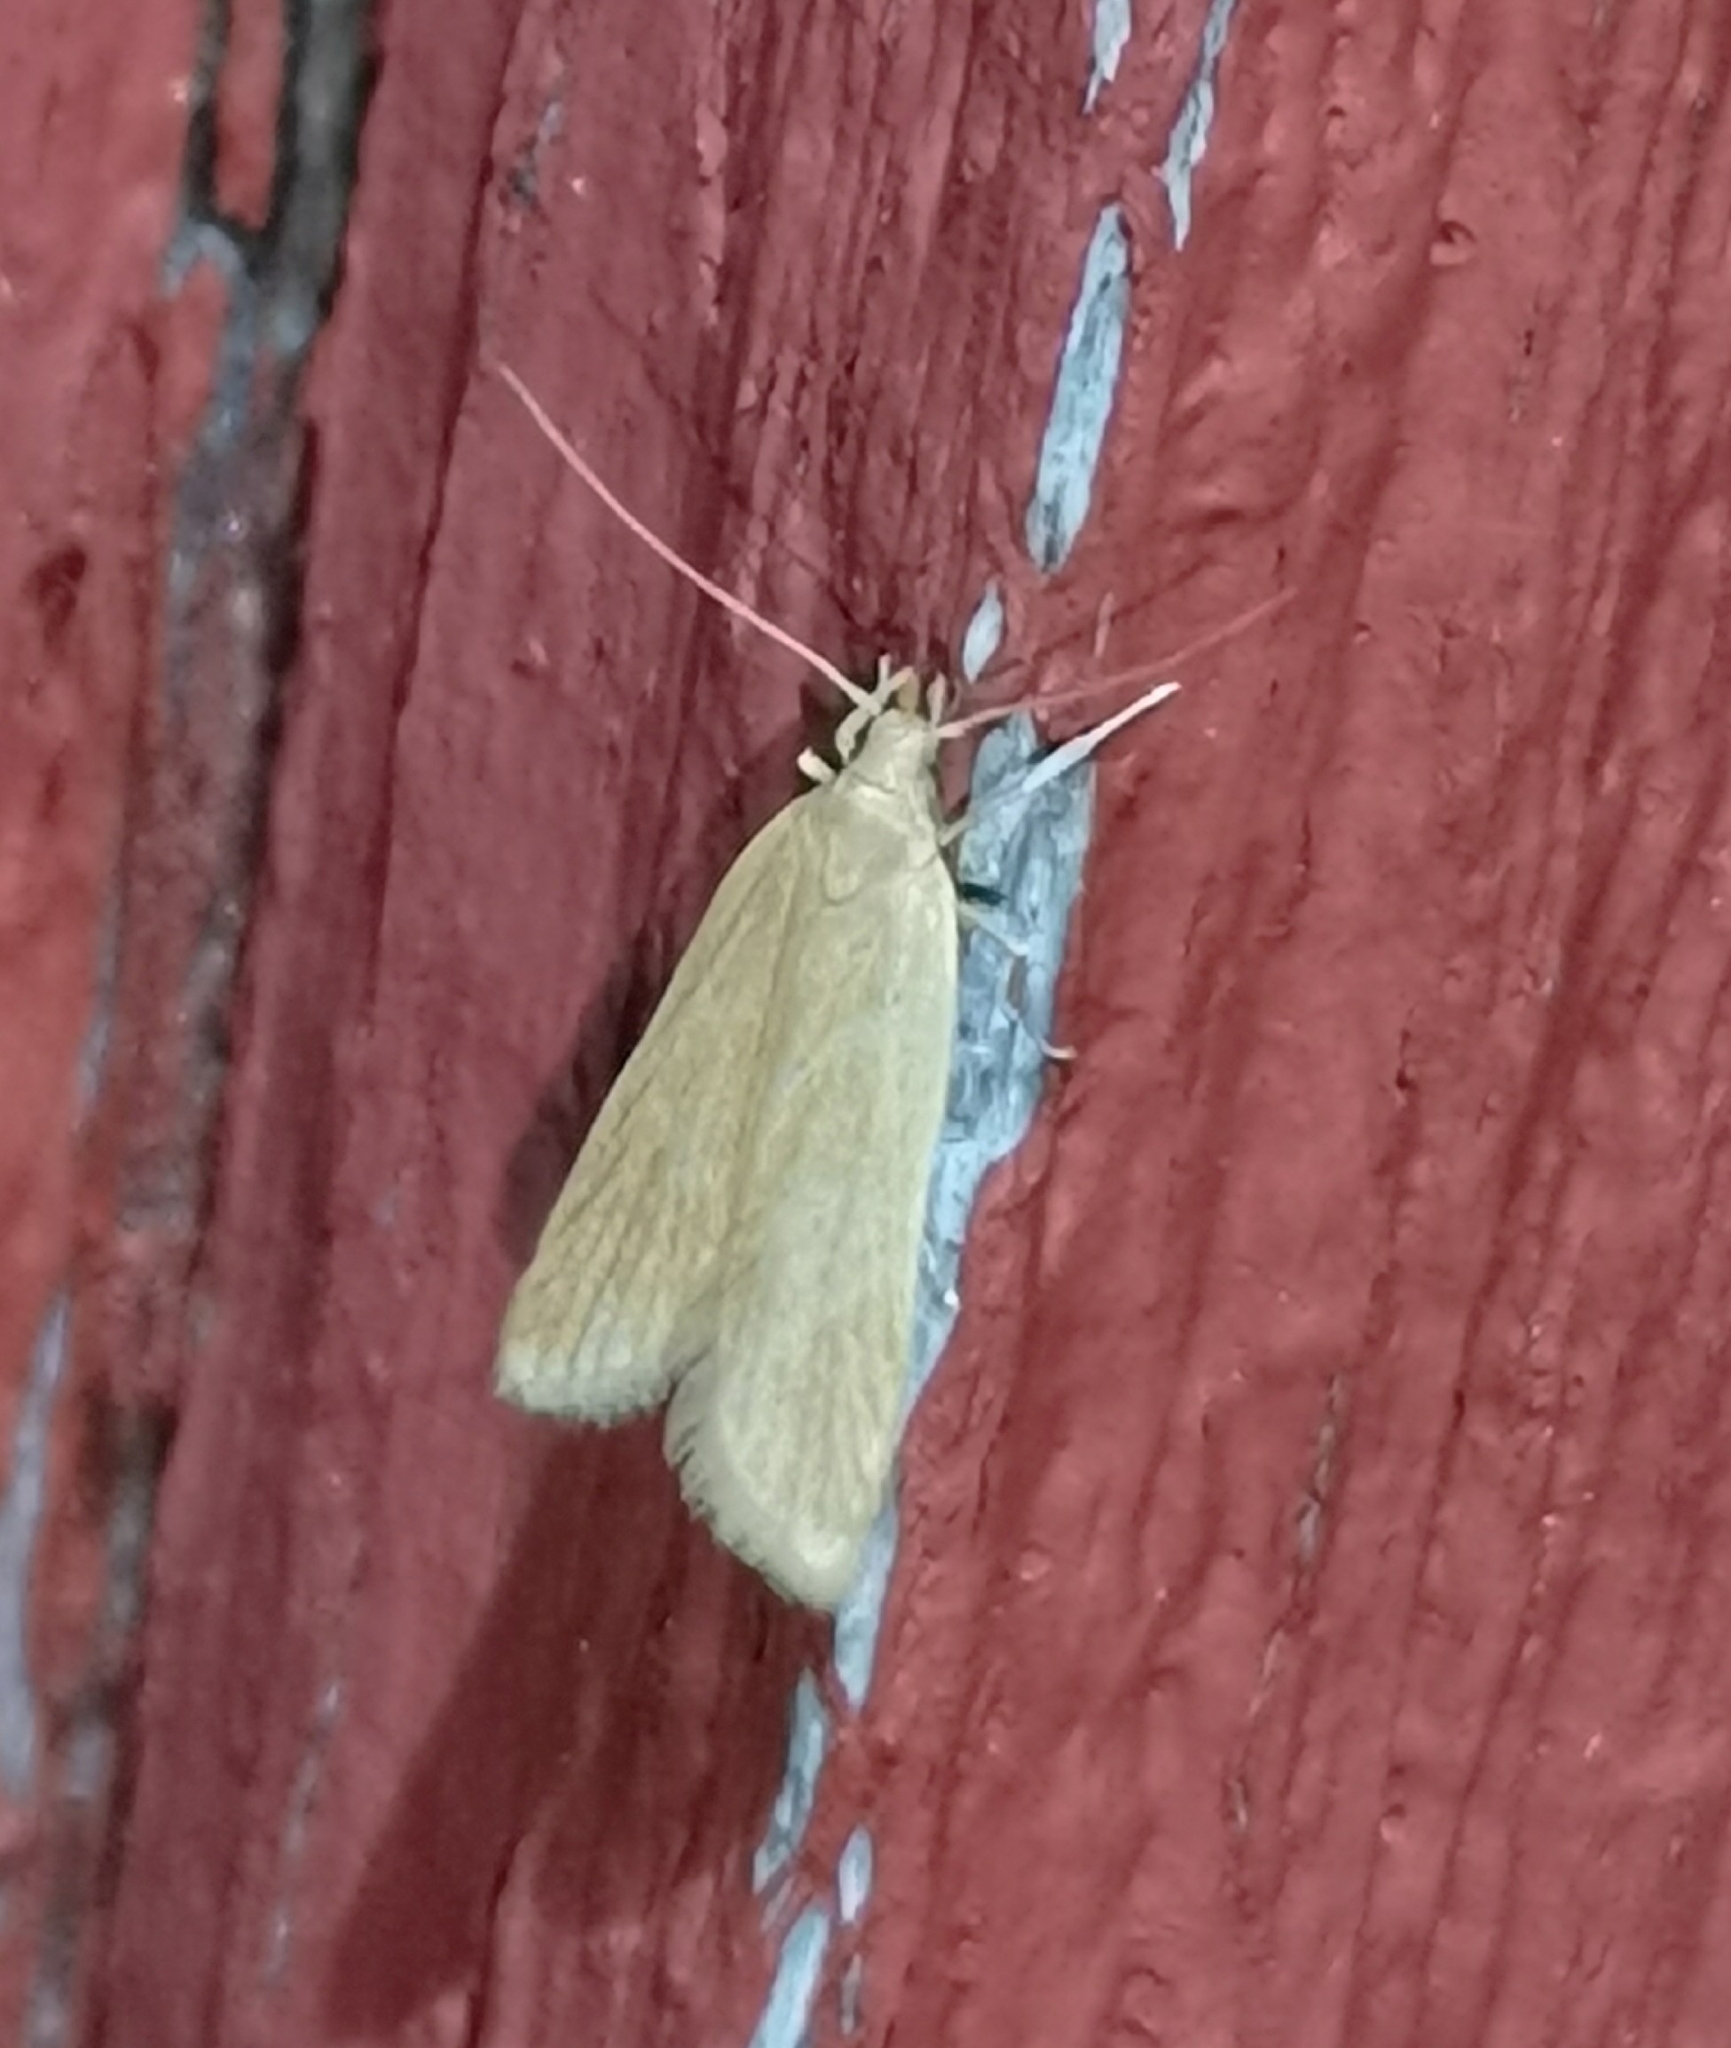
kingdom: Animalia
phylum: Arthropoda
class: Insecta
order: Lepidoptera
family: Gelechiidae
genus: Helcystogramma
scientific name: Helcystogramma rufescens
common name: Orange crest
